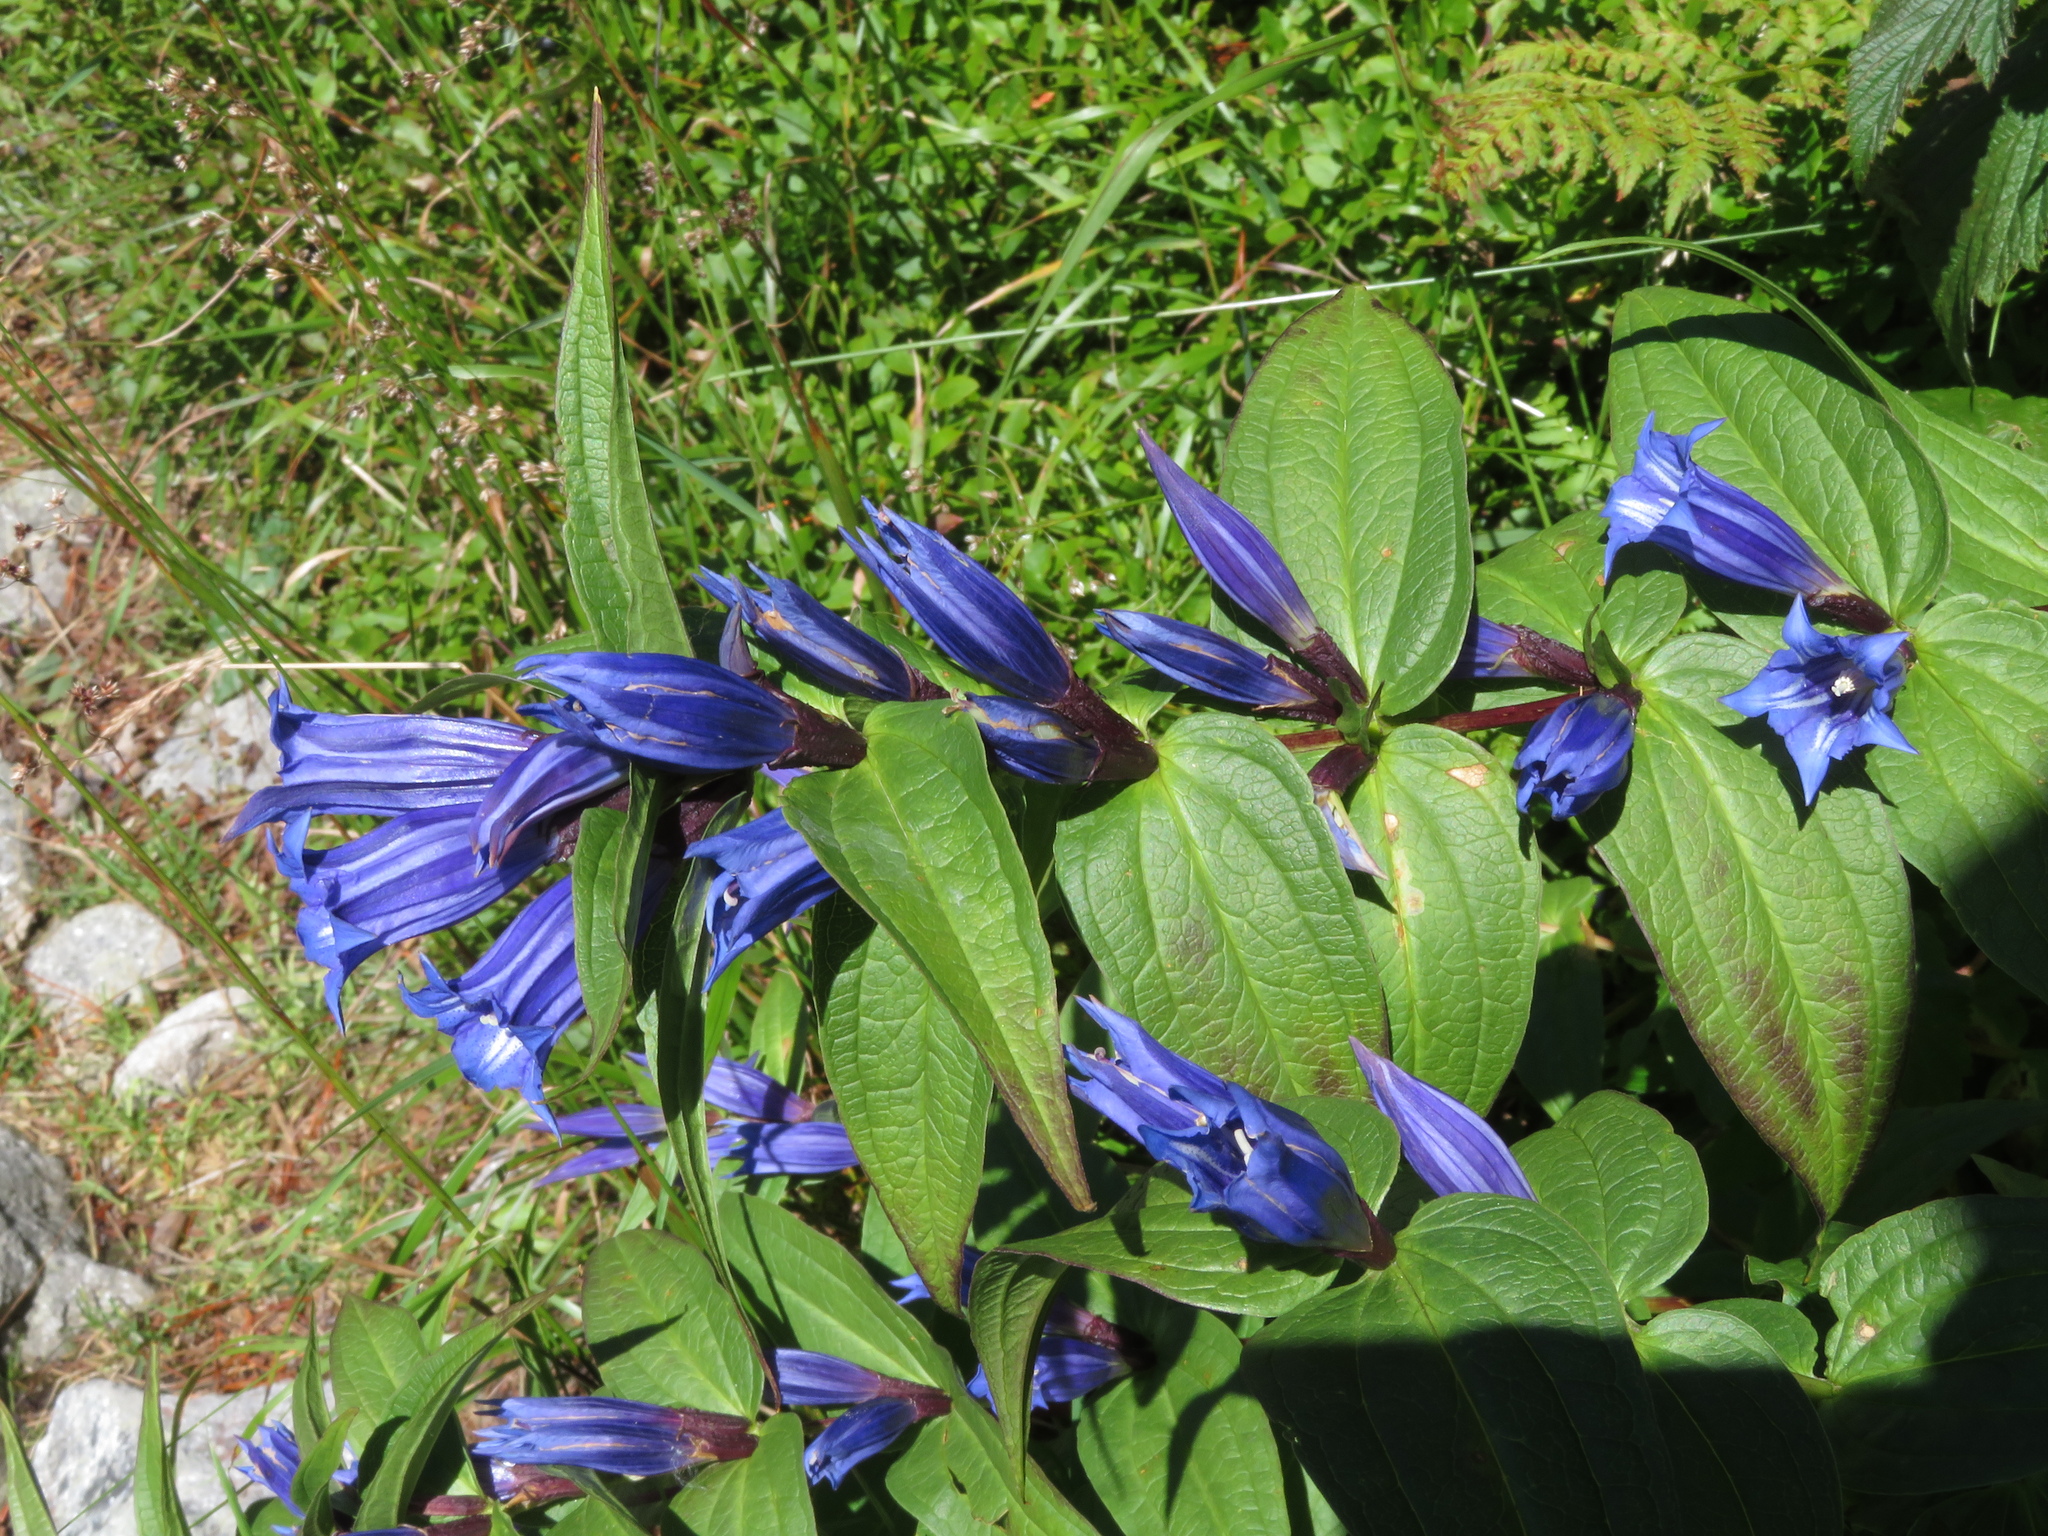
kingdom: Plantae
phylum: Tracheophyta
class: Magnoliopsida
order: Gentianales
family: Gentianaceae
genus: Gentiana
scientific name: Gentiana asclepiadea
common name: Willow gentian
